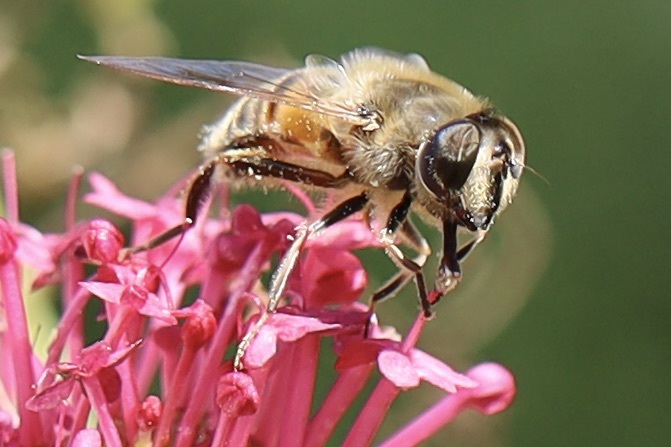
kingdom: Animalia
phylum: Arthropoda
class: Insecta
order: Diptera
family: Syrphidae
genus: Eristalis
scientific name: Eristalis tenax
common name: Drone fly
